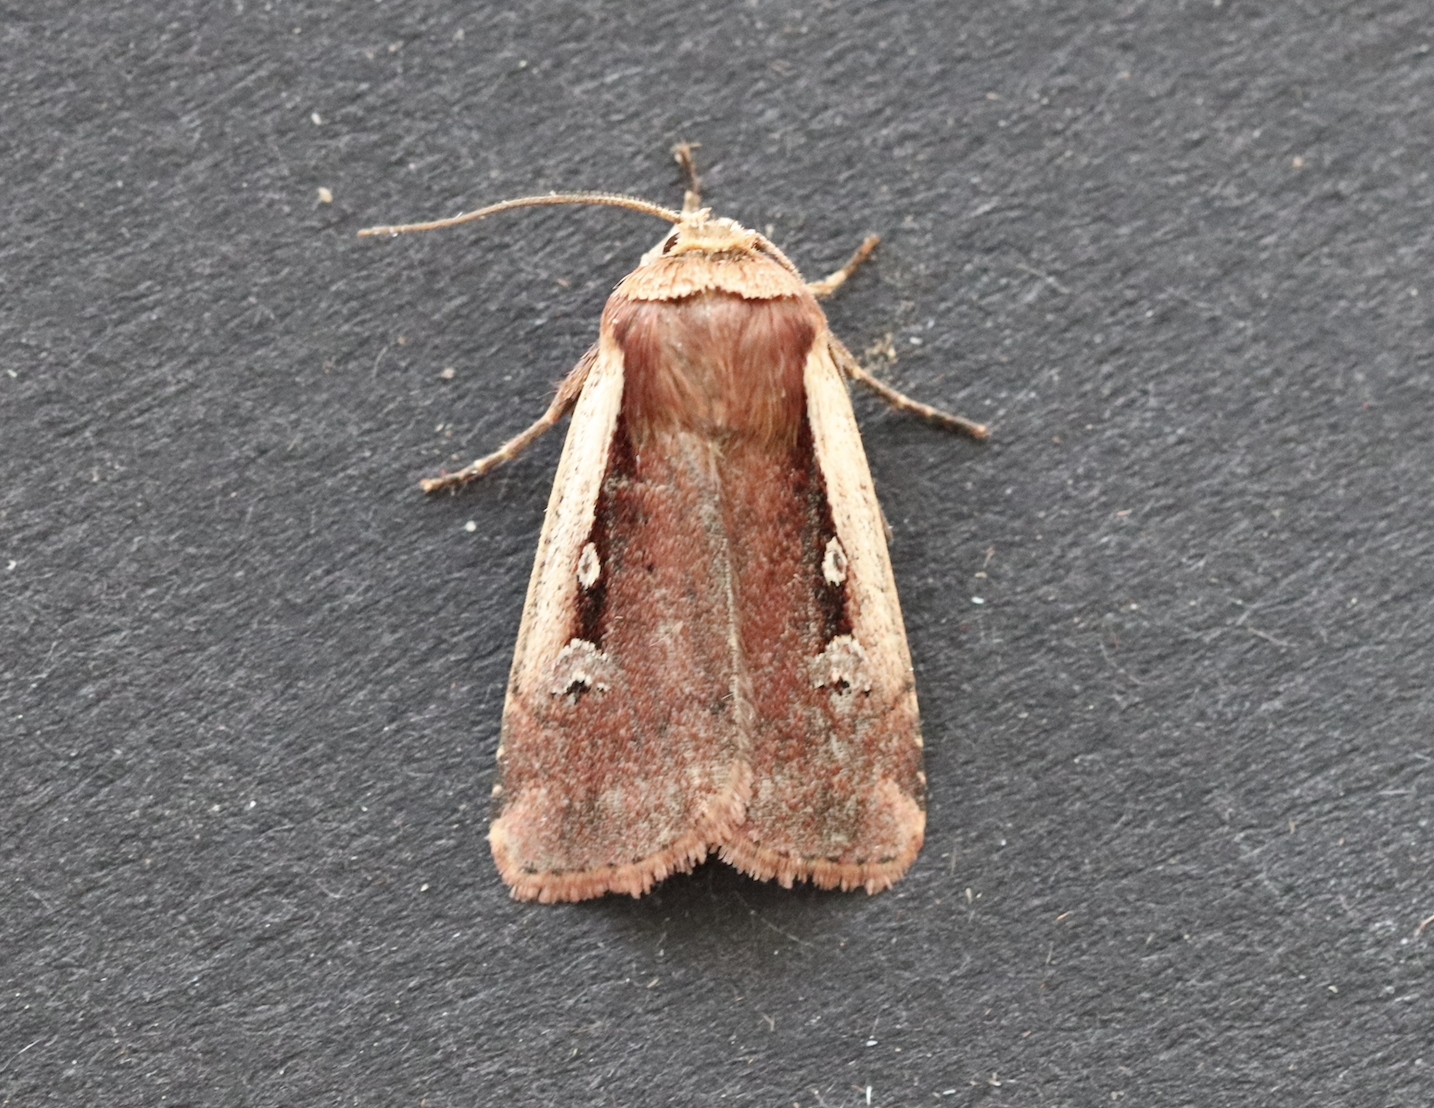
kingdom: Animalia
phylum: Arthropoda
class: Insecta
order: Lepidoptera
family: Noctuidae
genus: Ochropleura
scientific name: Ochropleura plecta
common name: Flame shoulder
